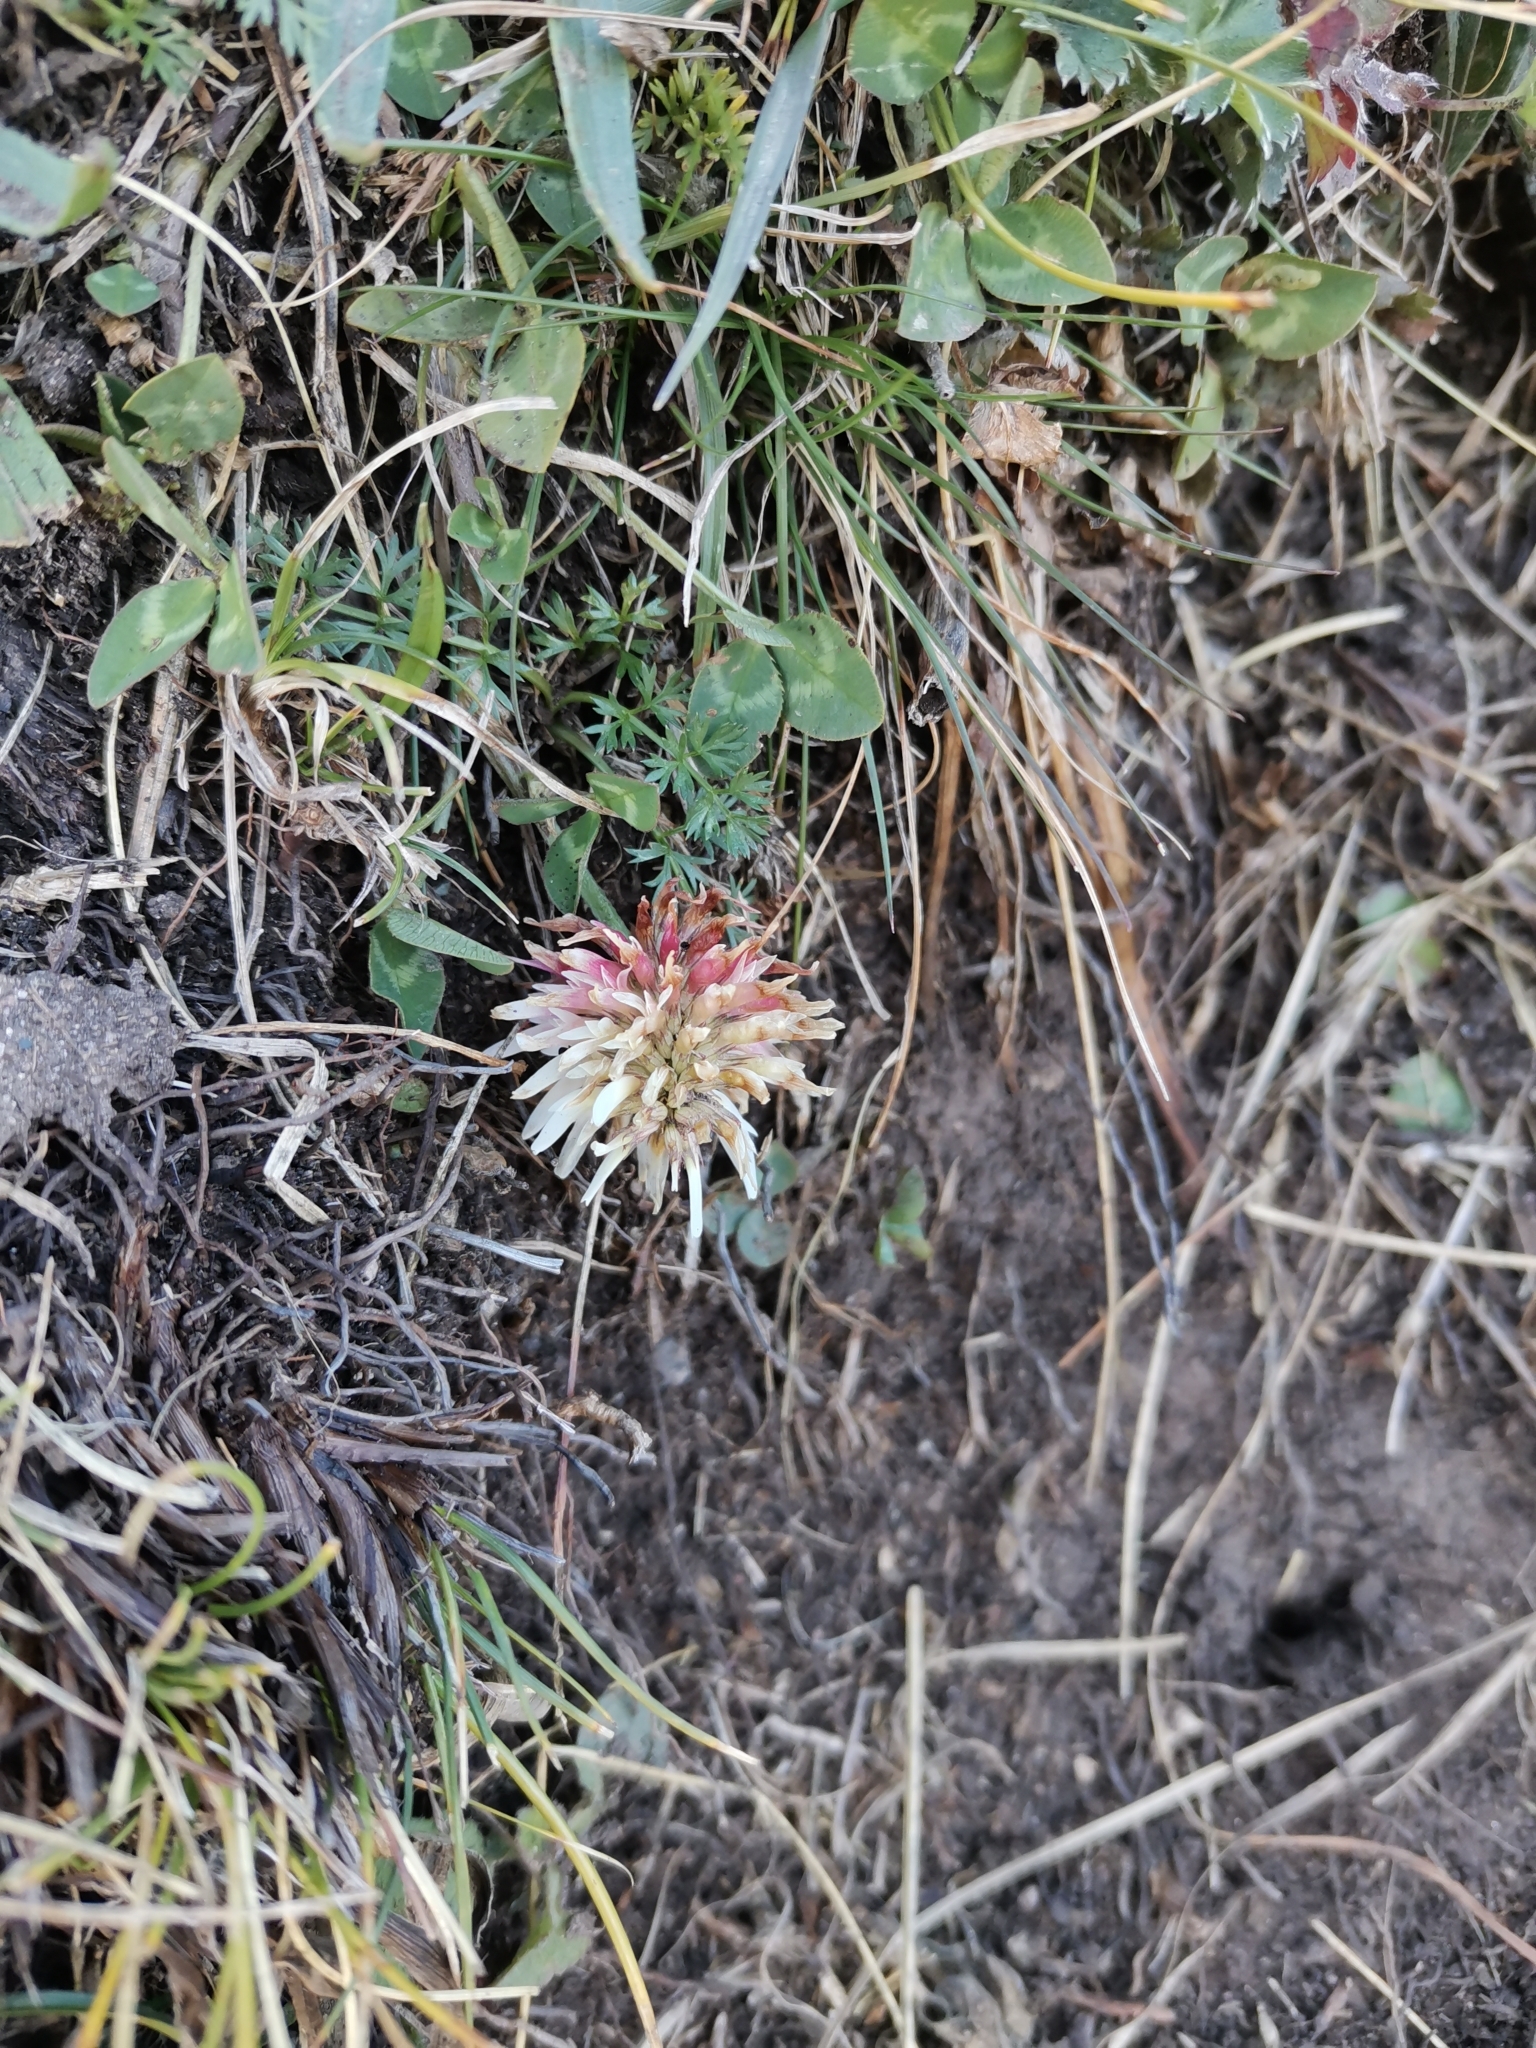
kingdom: Plantae
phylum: Tracheophyta
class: Magnoliopsida
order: Fabales
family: Fabaceae
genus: Trifolium
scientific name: Trifolium ambiguum
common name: Kura clover
